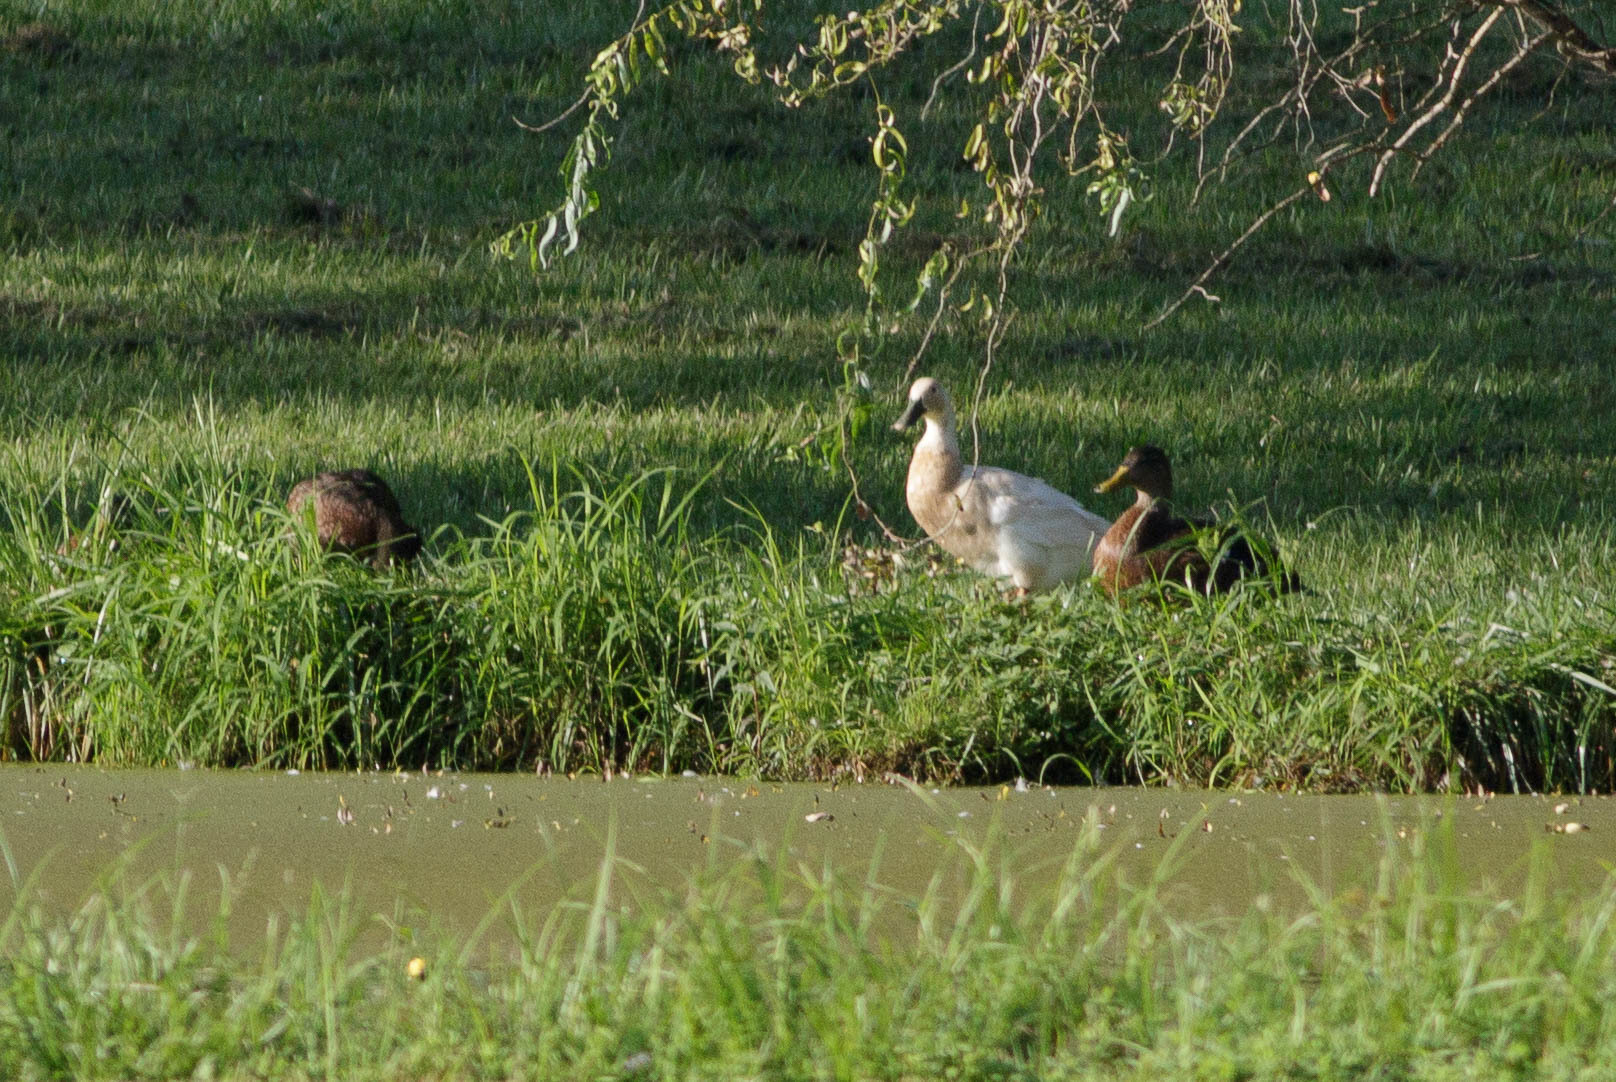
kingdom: Animalia
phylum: Chordata
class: Aves
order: Anseriformes
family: Anatidae
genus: Anas
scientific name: Anas platyrhynchos
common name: Mallard
